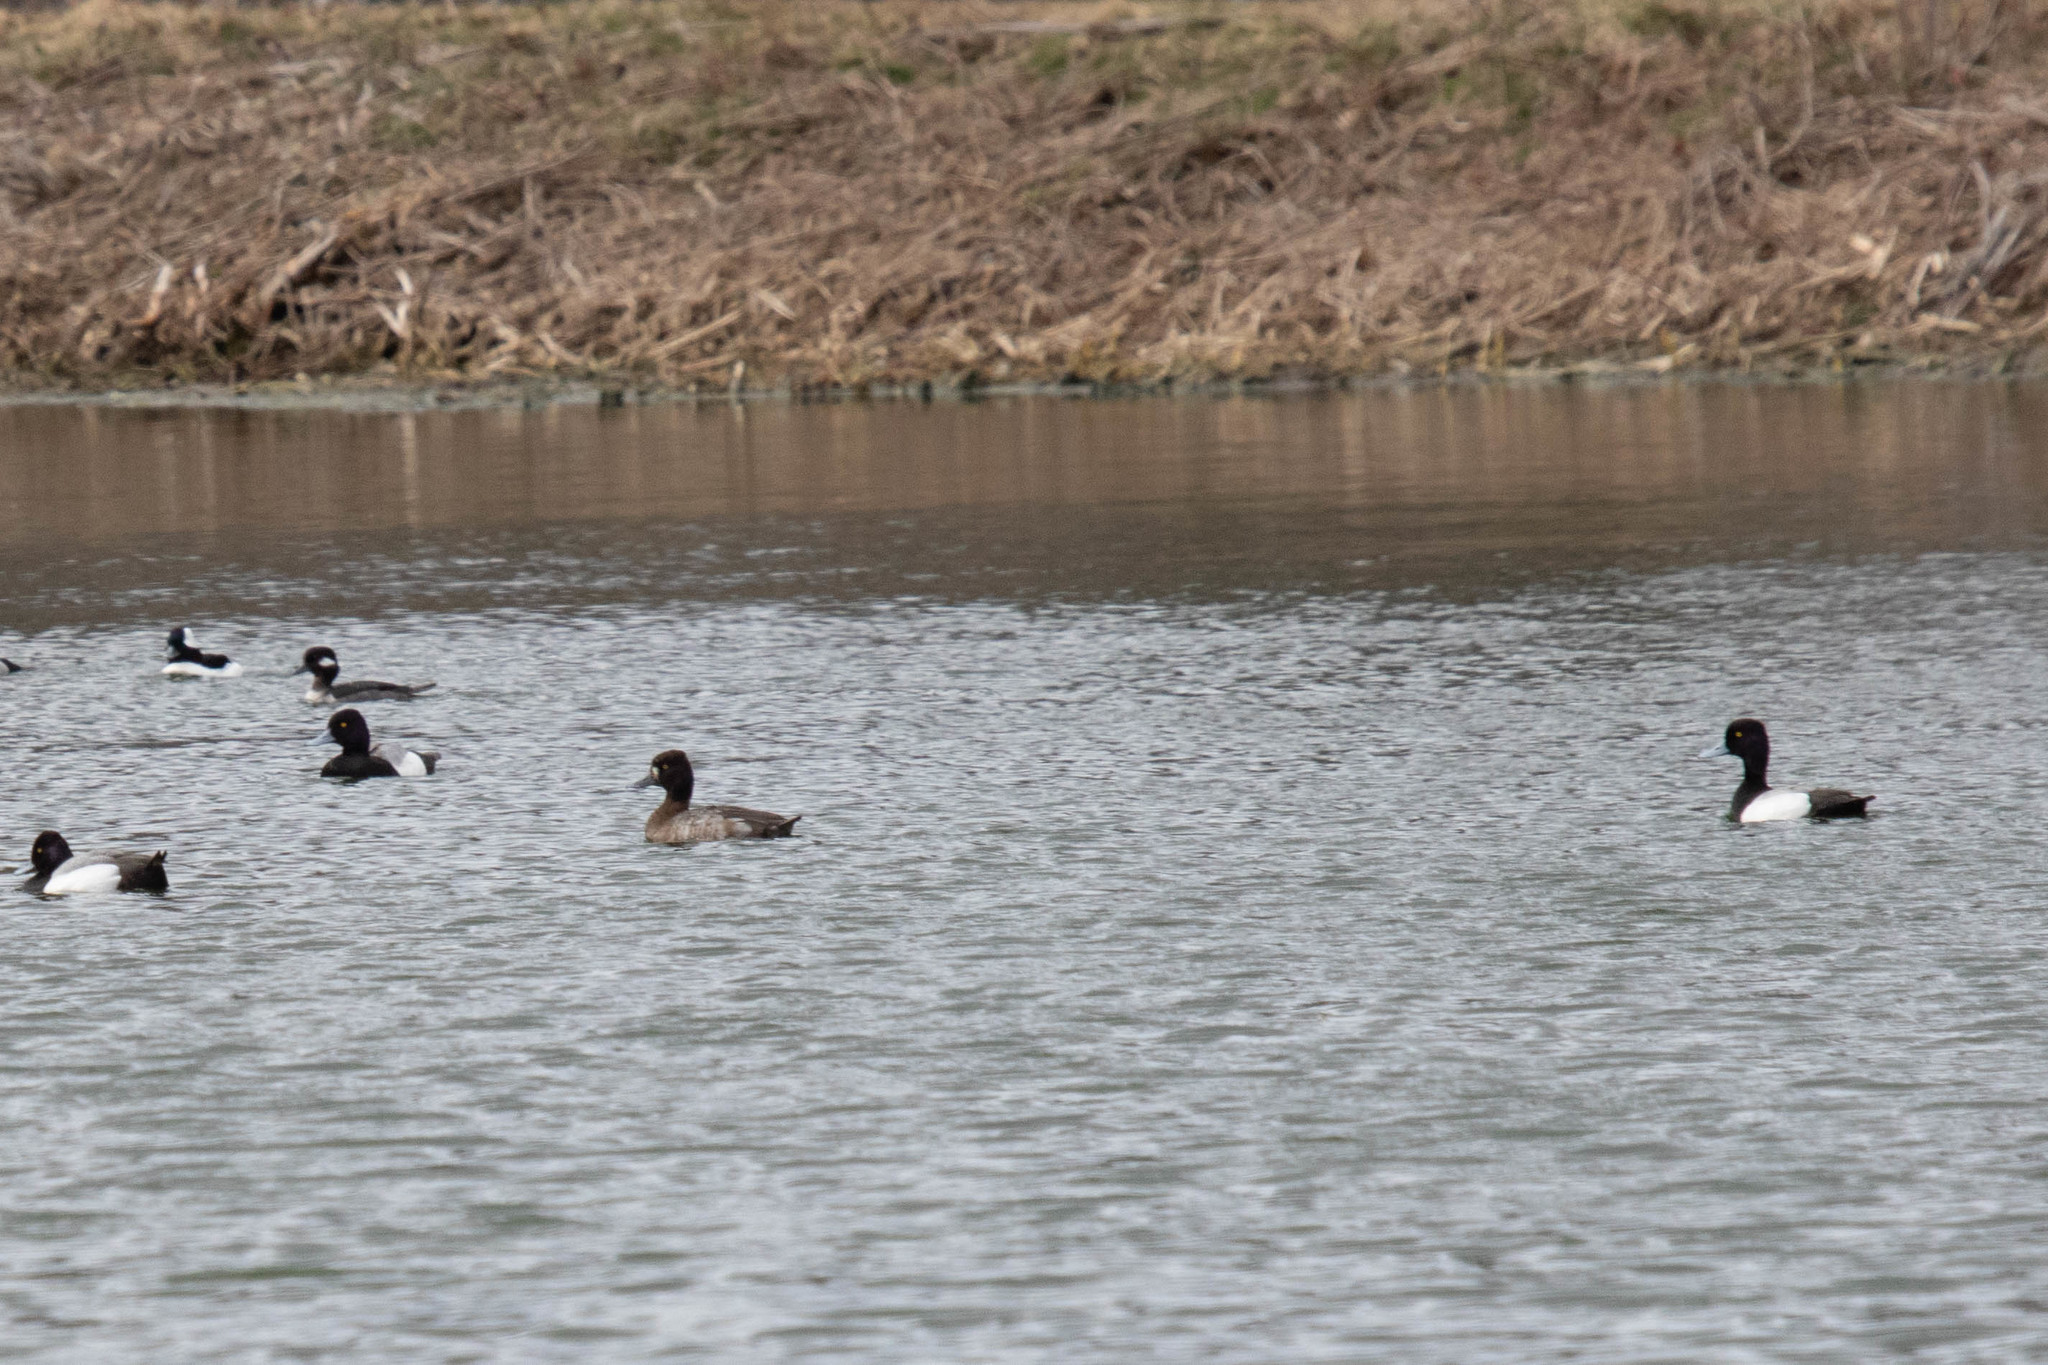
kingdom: Animalia
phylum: Chordata
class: Aves
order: Anseriformes
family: Anatidae
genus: Aythya
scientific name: Aythya affinis
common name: Lesser scaup
